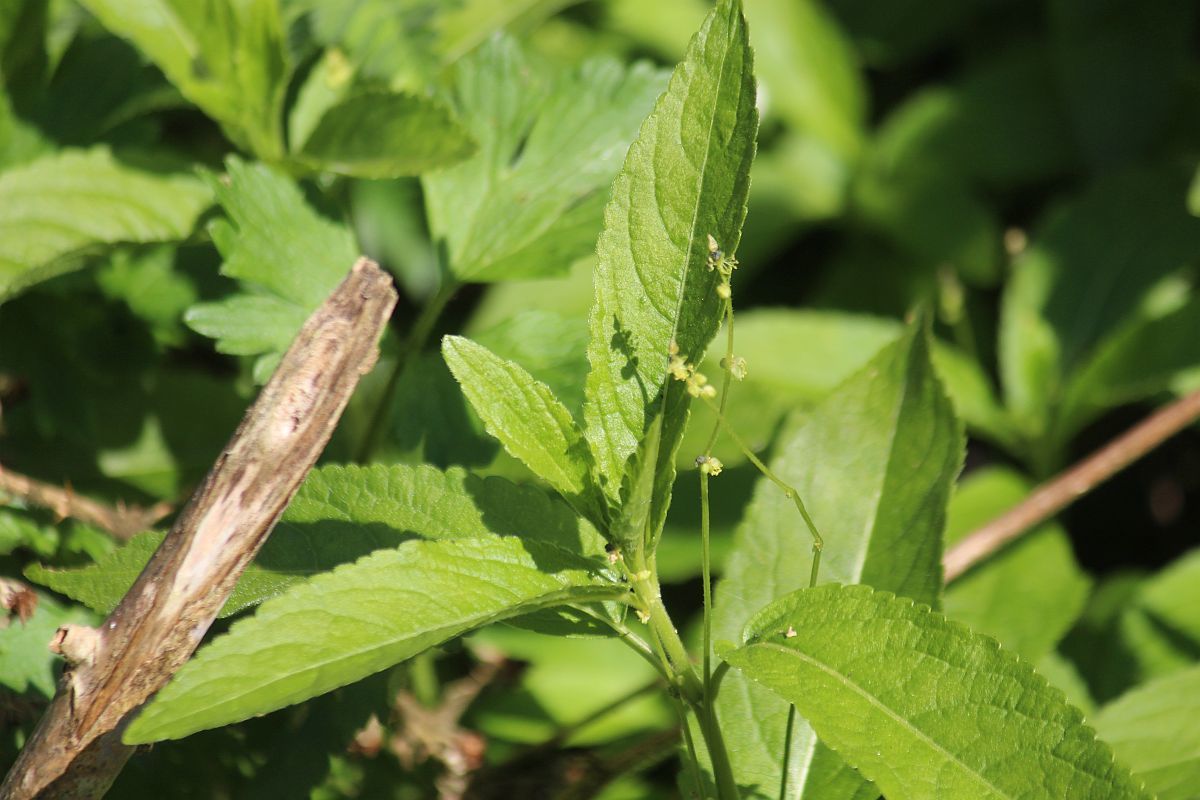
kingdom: Plantae
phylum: Tracheophyta
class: Magnoliopsida
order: Malpighiales
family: Euphorbiaceae
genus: Mercurialis
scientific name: Mercurialis perennis
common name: Dog mercury
